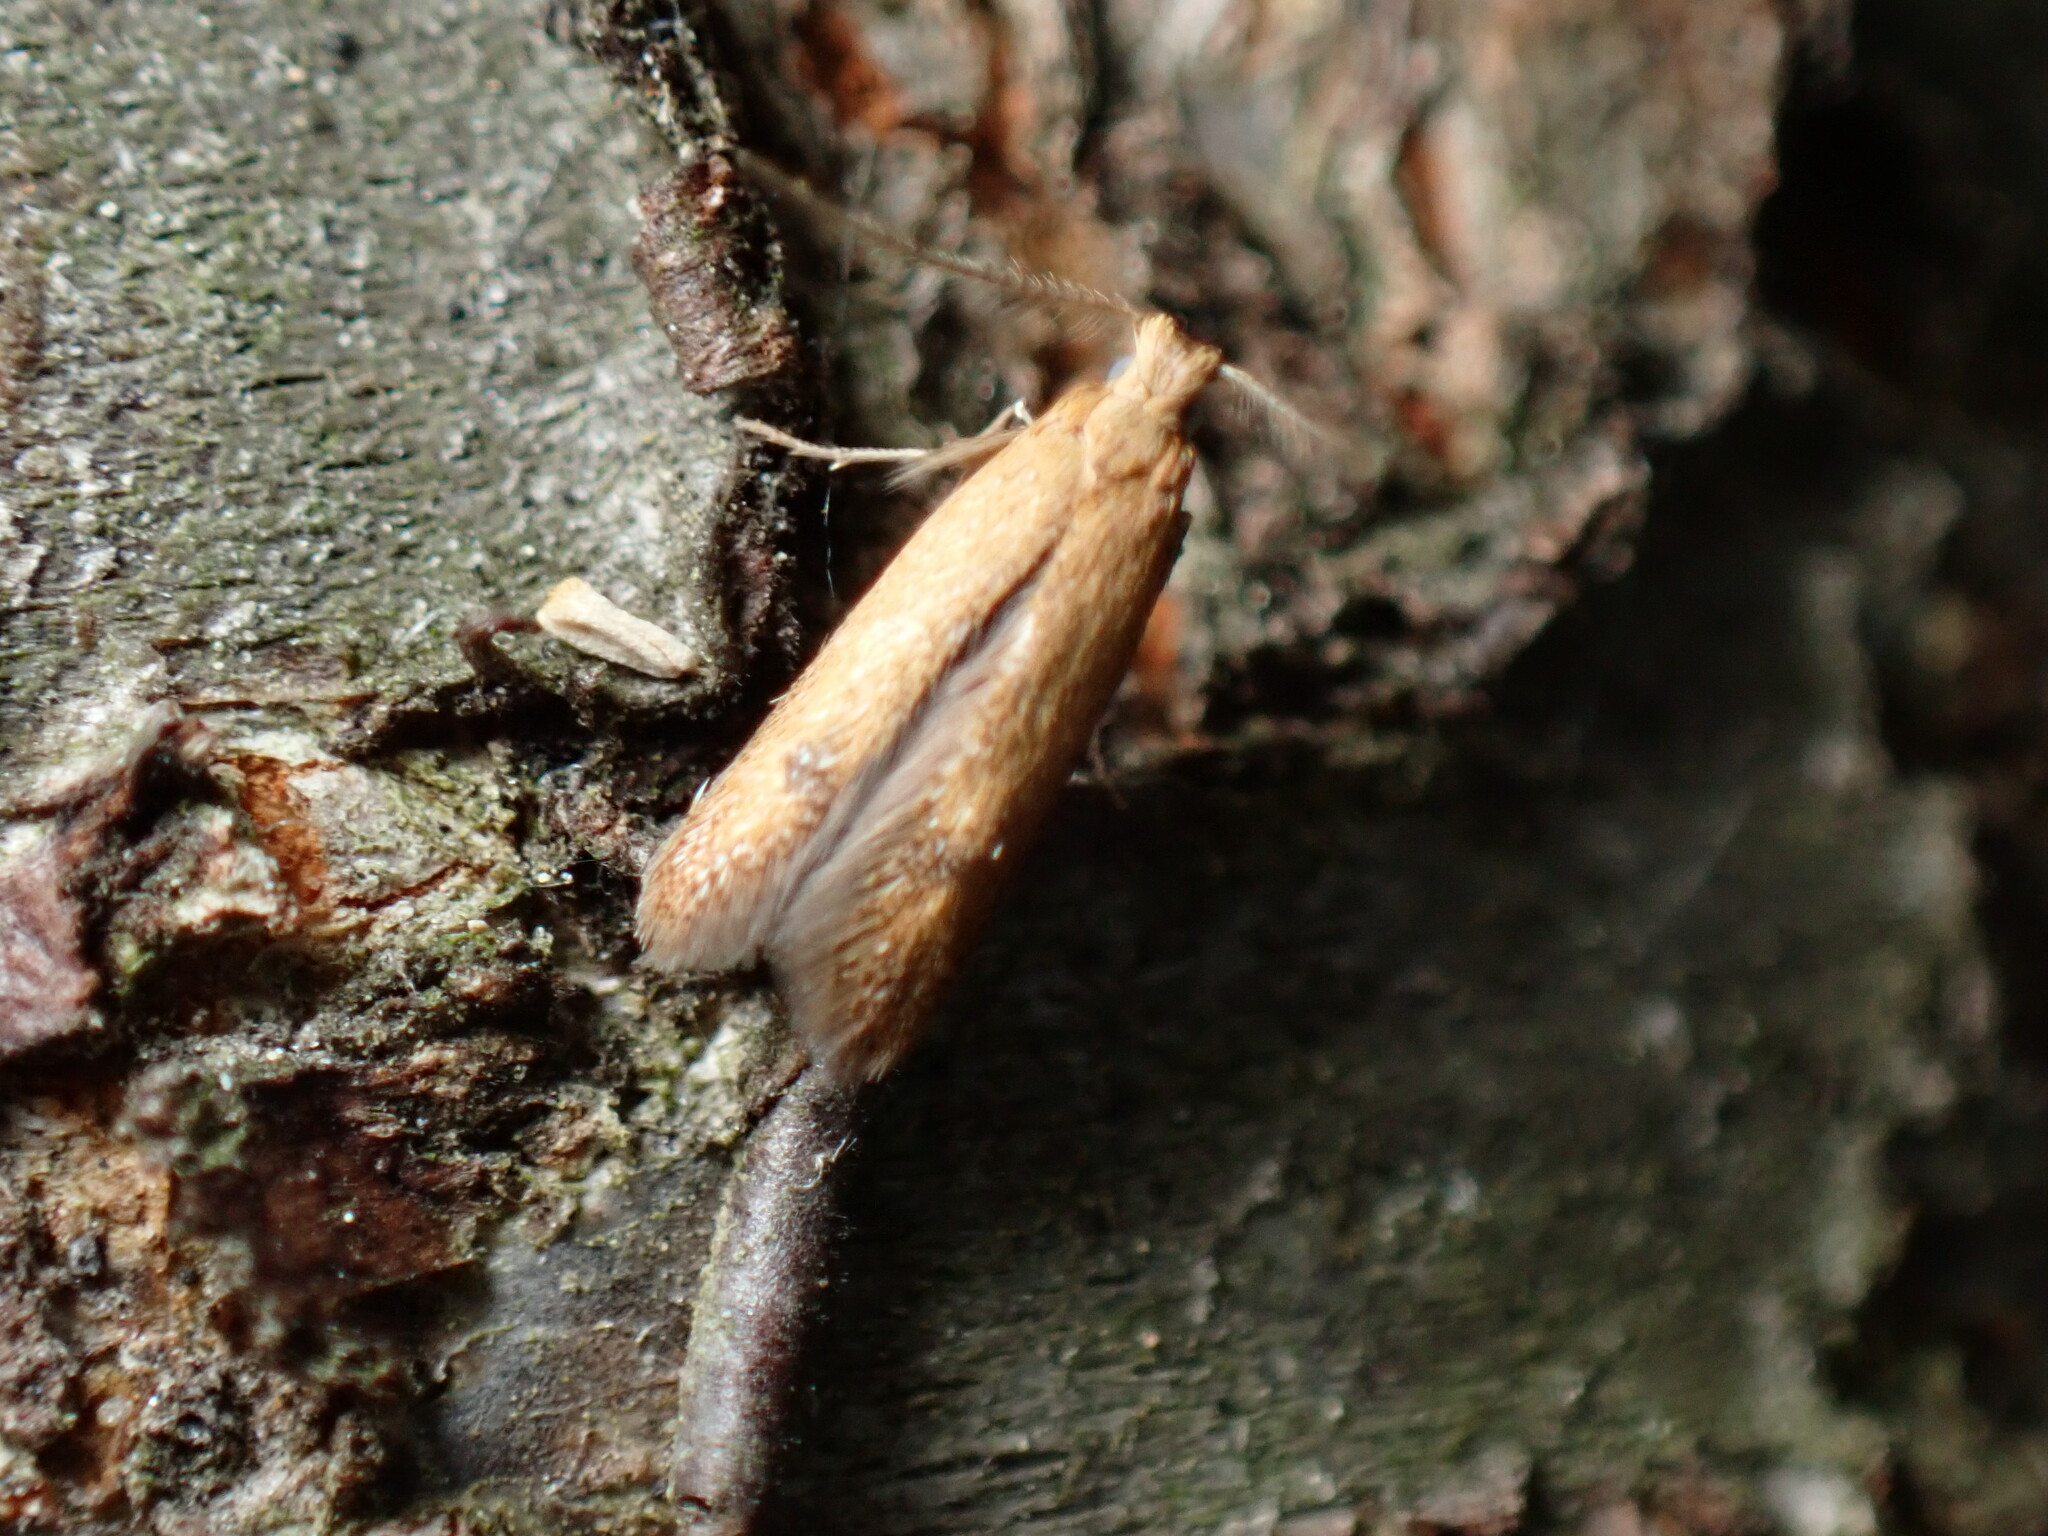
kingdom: Animalia
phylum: Arthropoda
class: Insecta
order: Lepidoptera
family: Tischeriidae
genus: Tischeria
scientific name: Tischeria quercitella
